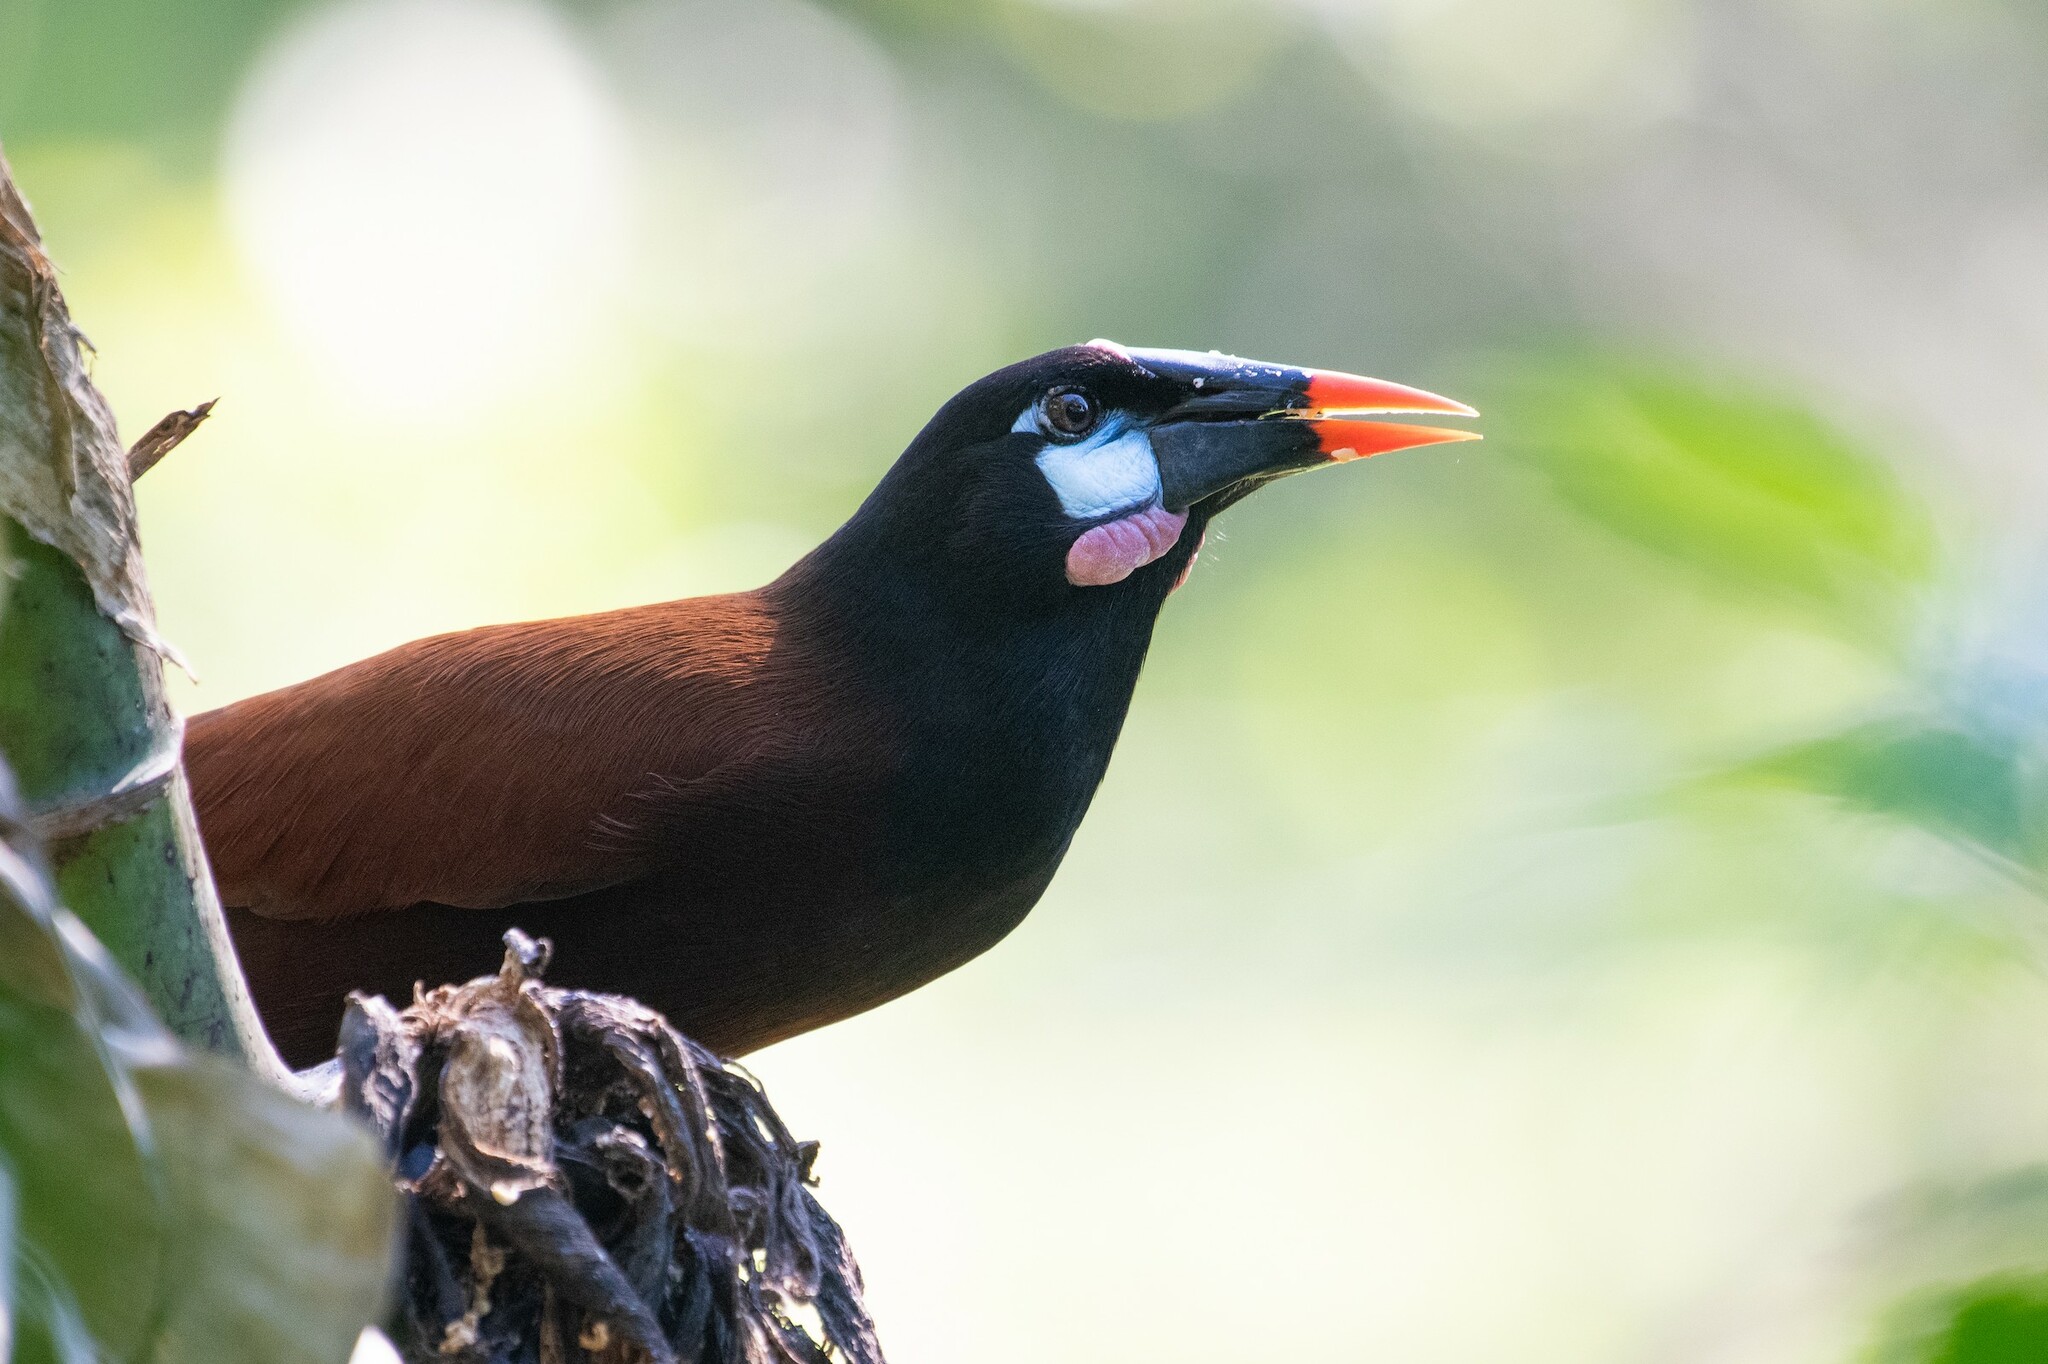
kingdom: Animalia
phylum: Chordata
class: Aves
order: Passeriformes
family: Icteridae
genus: Psarocolius
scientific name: Psarocolius montezuma
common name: Montezuma oropendola
